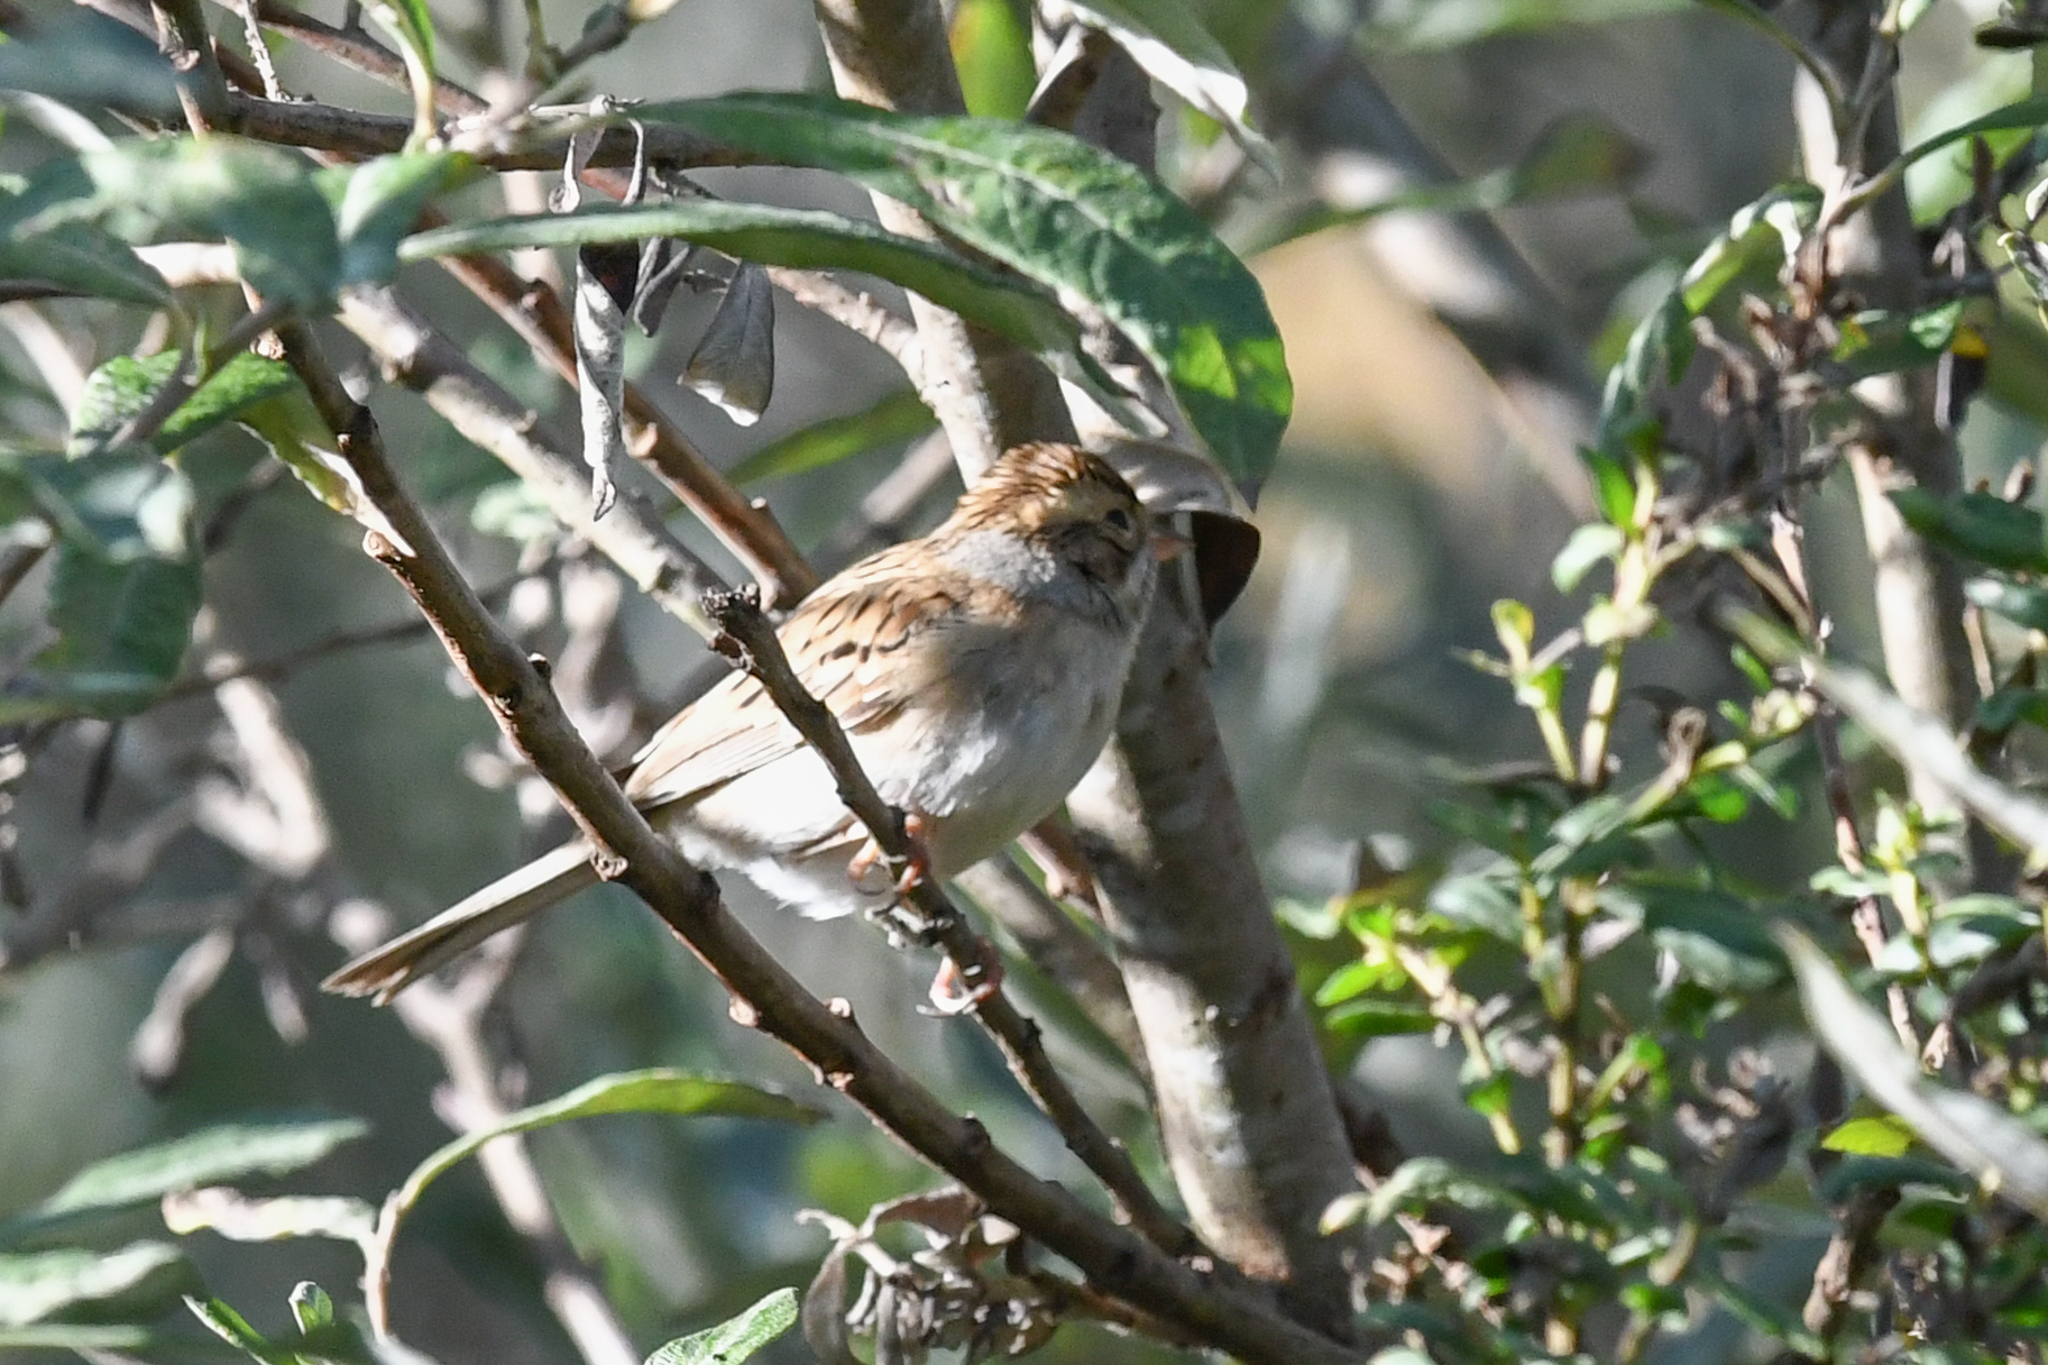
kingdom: Animalia
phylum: Chordata
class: Aves
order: Passeriformes
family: Passerellidae
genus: Spizella
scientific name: Spizella pallida
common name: Clay-colored sparrow
